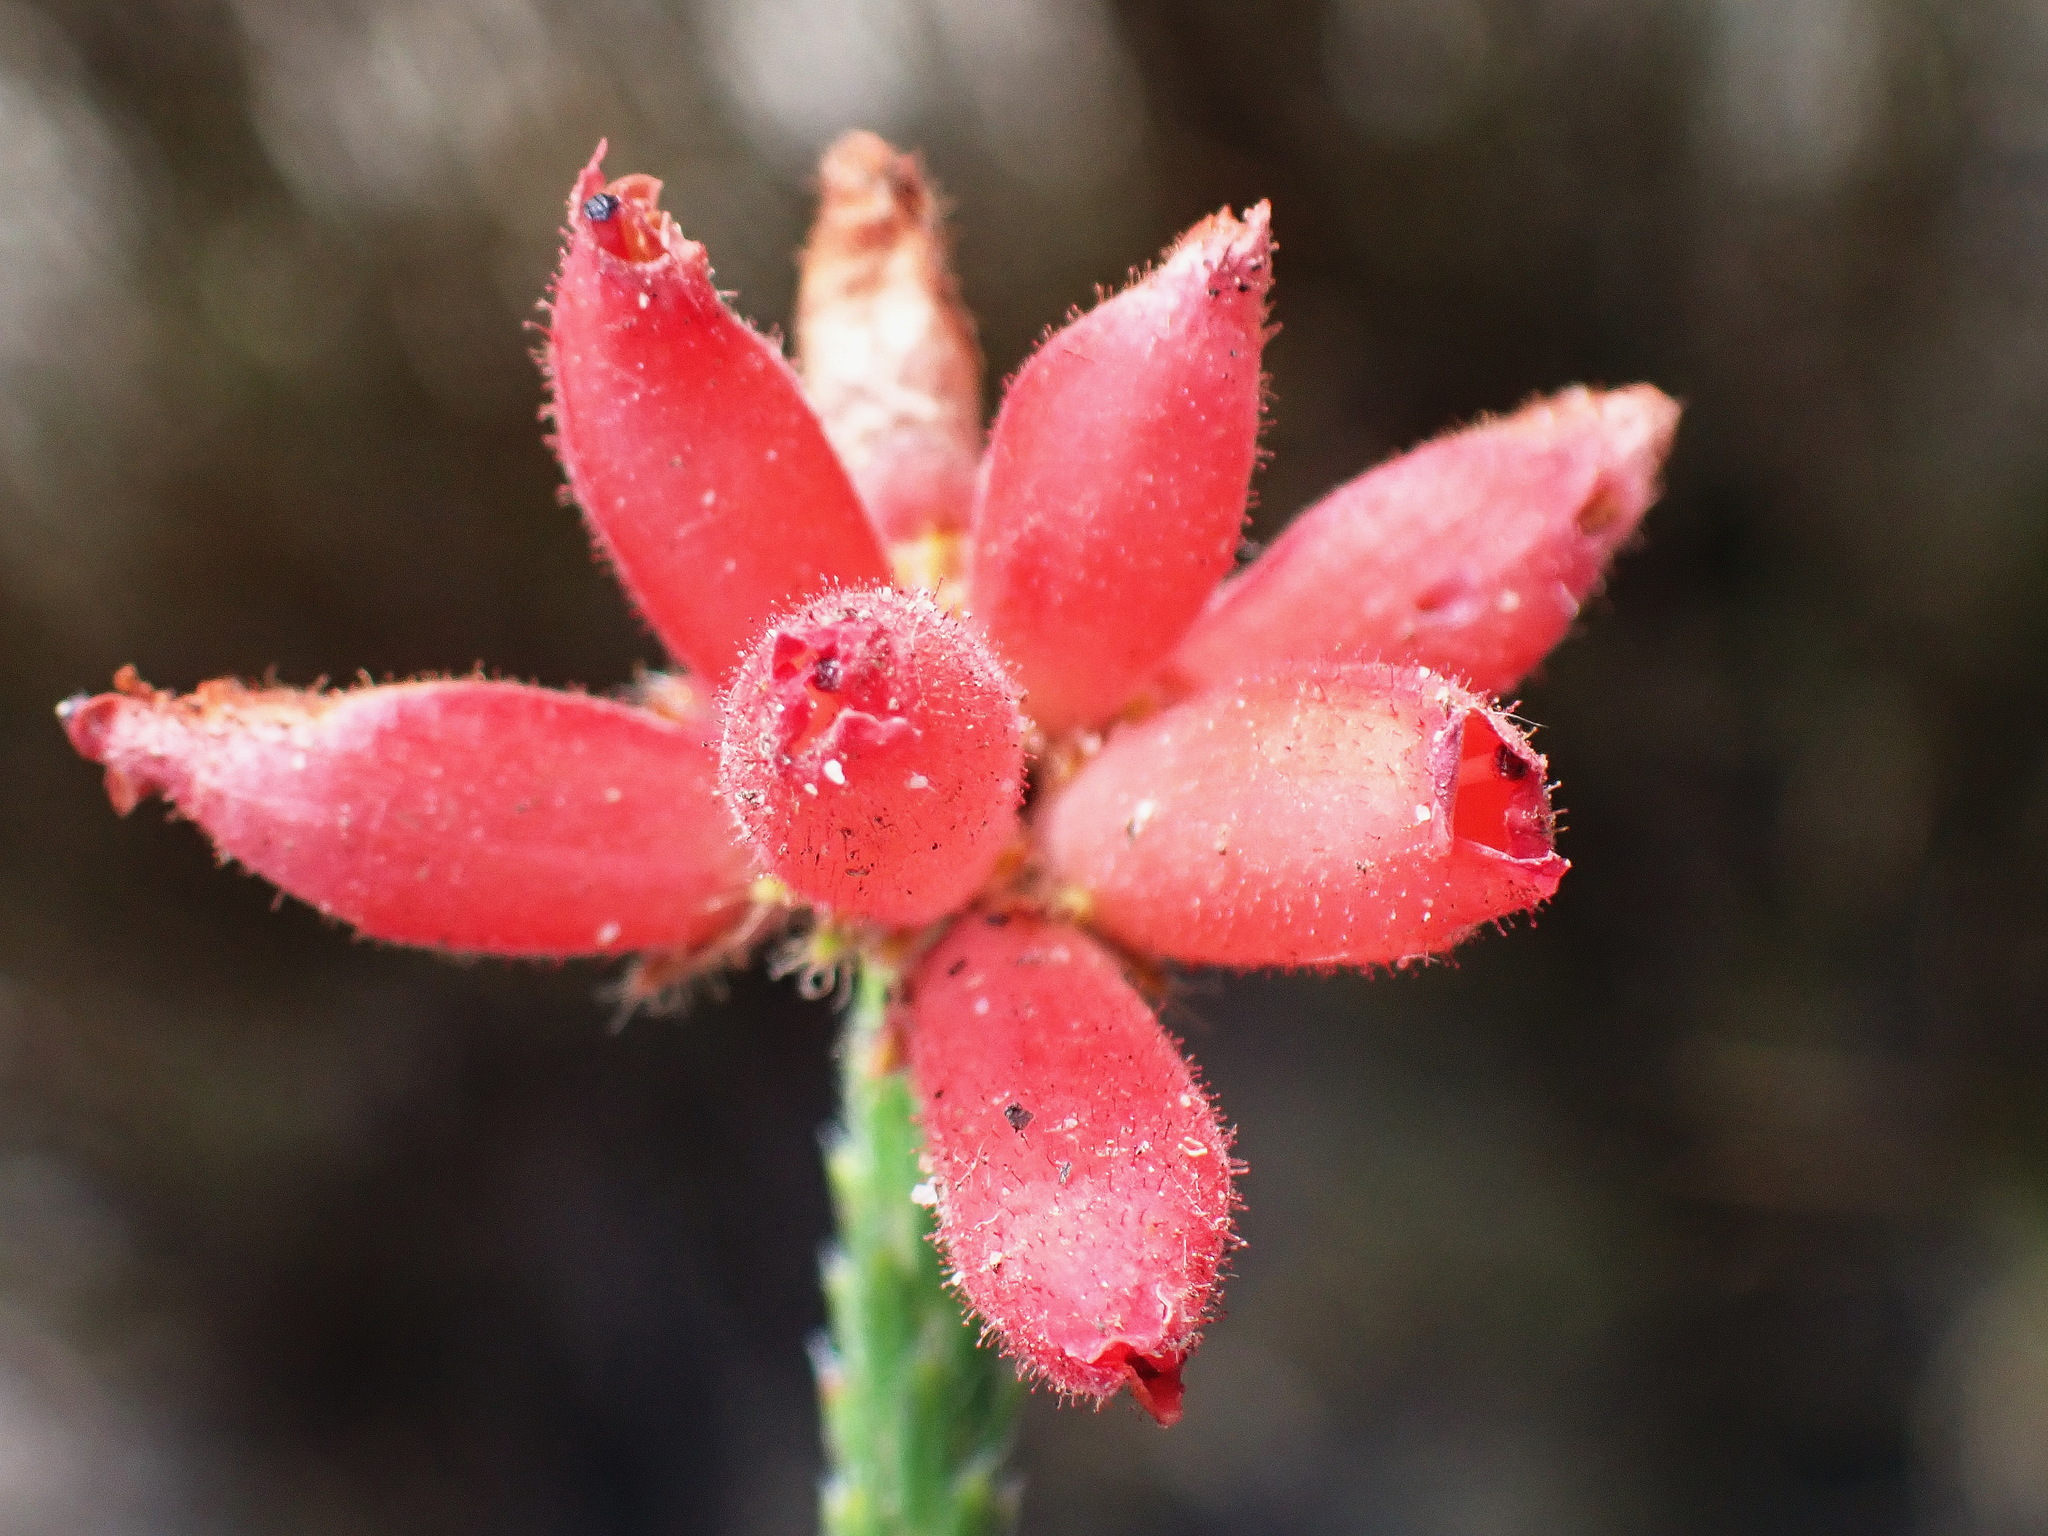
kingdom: Plantae
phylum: Tracheophyta
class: Magnoliopsida
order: Ericales
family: Ericaceae
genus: Erica
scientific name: Erica cerinthoides
